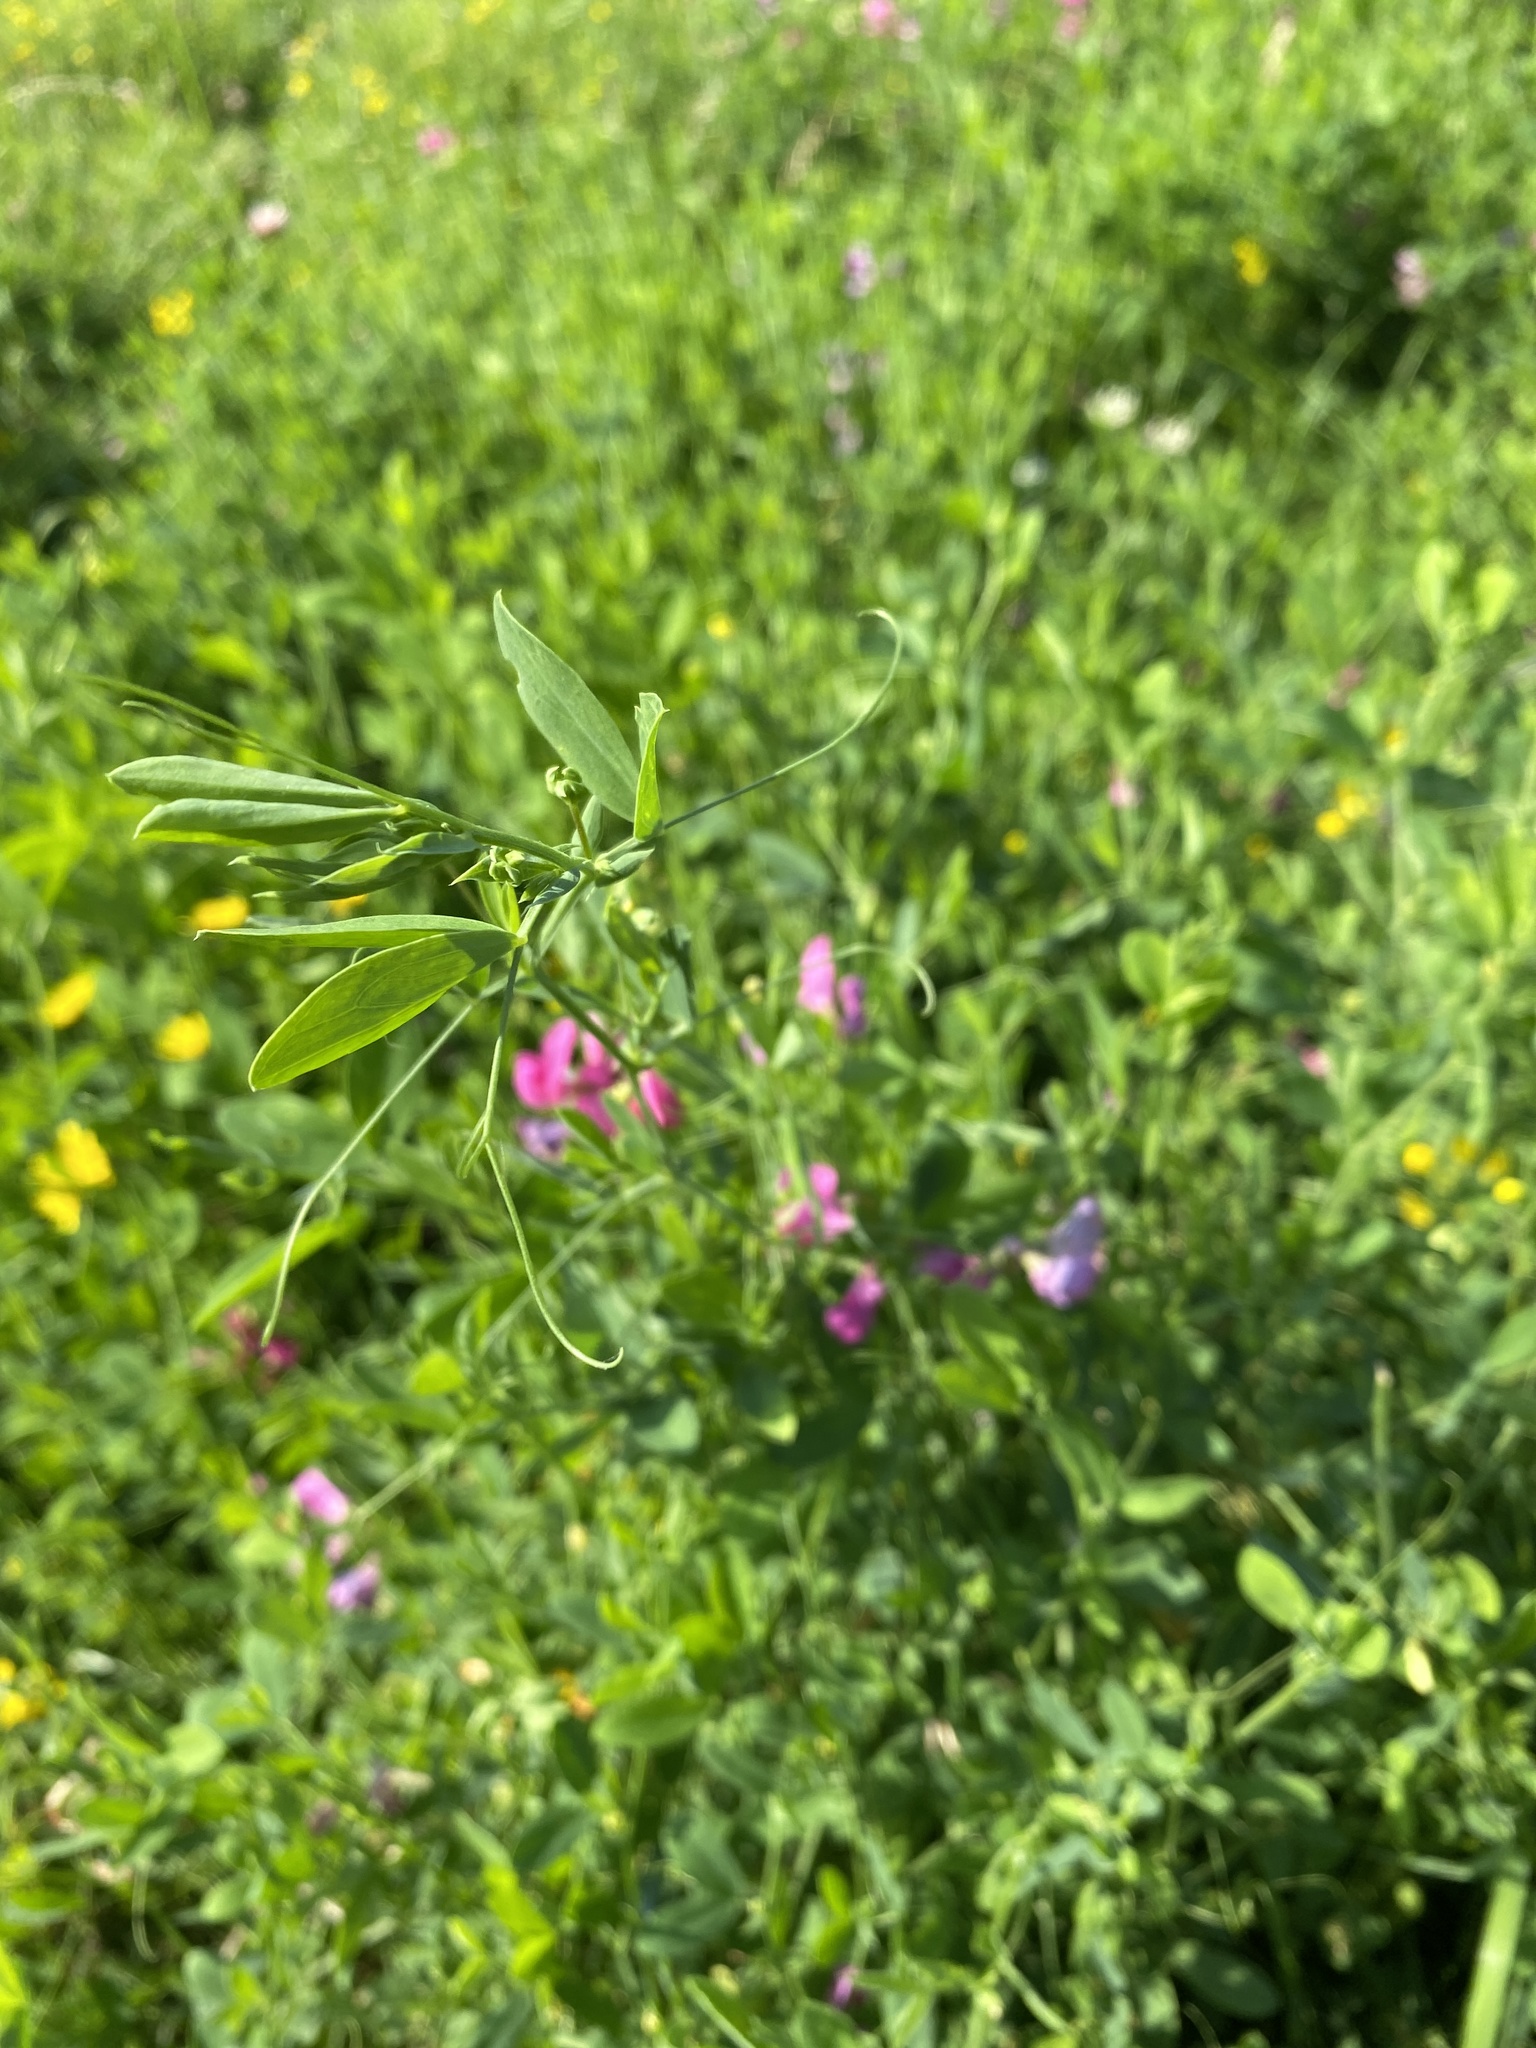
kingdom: Plantae
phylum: Tracheophyta
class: Magnoliopsida
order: Fabales
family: Fabaceae
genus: Lathyrus
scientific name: Lathyrus tuberosus
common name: Tuberous pea
